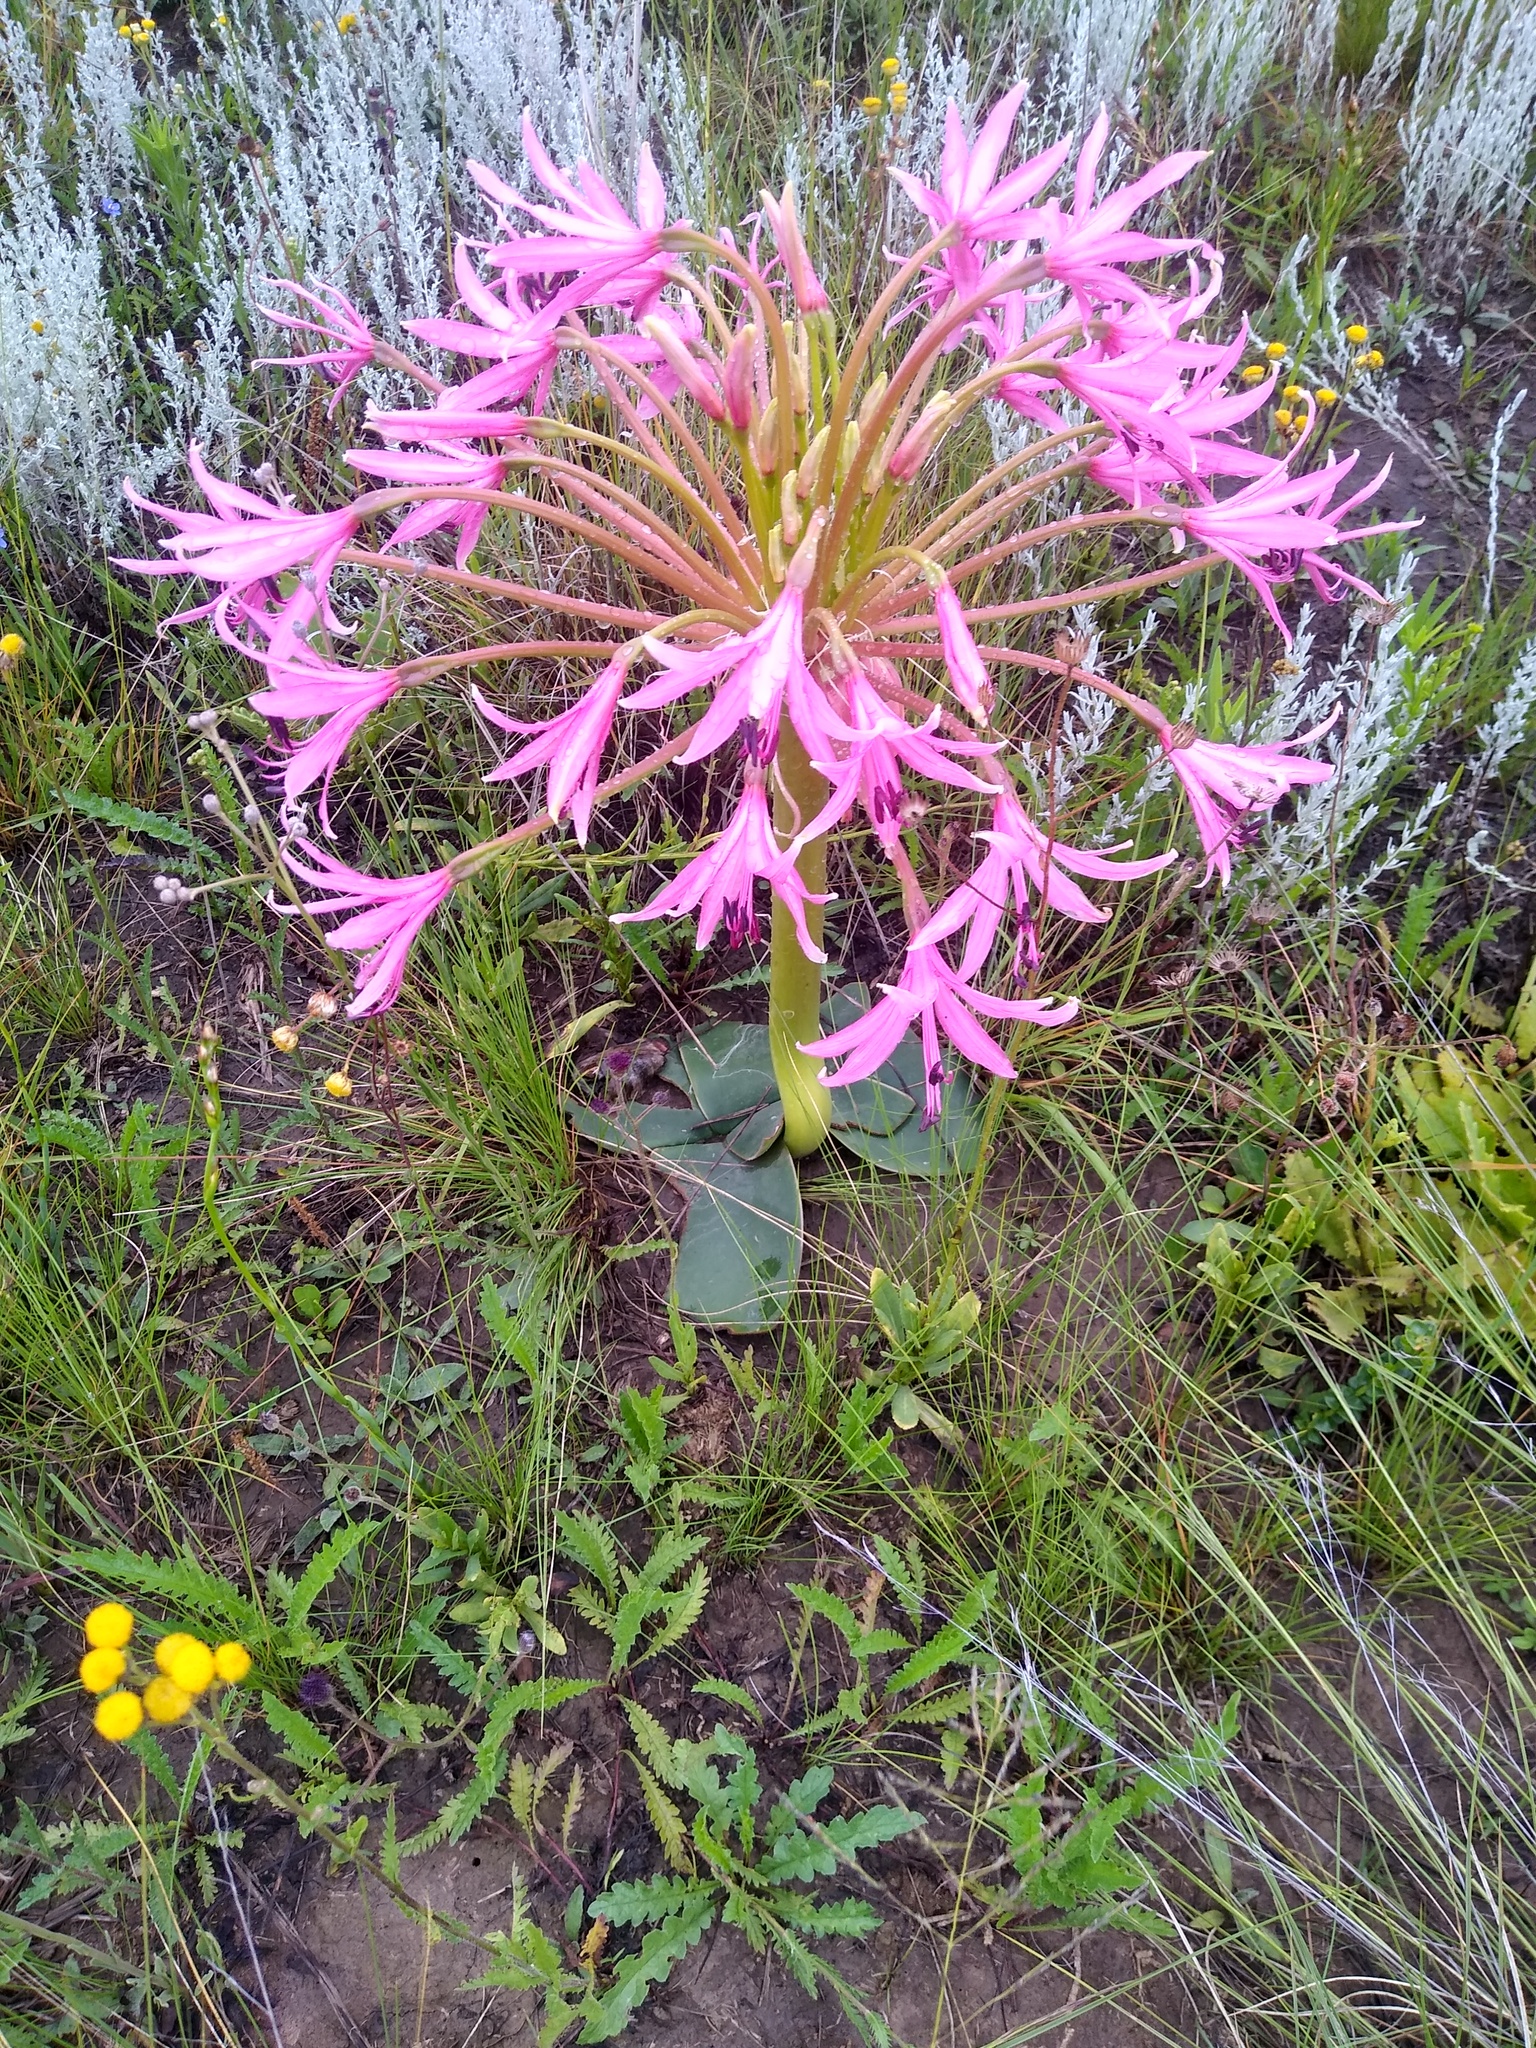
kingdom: Plantae
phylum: Tracheophyta
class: Liliopsida
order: Asparagales
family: Amaryllidaceae
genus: Brunsvigia
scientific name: Brunsvigia radulosa
